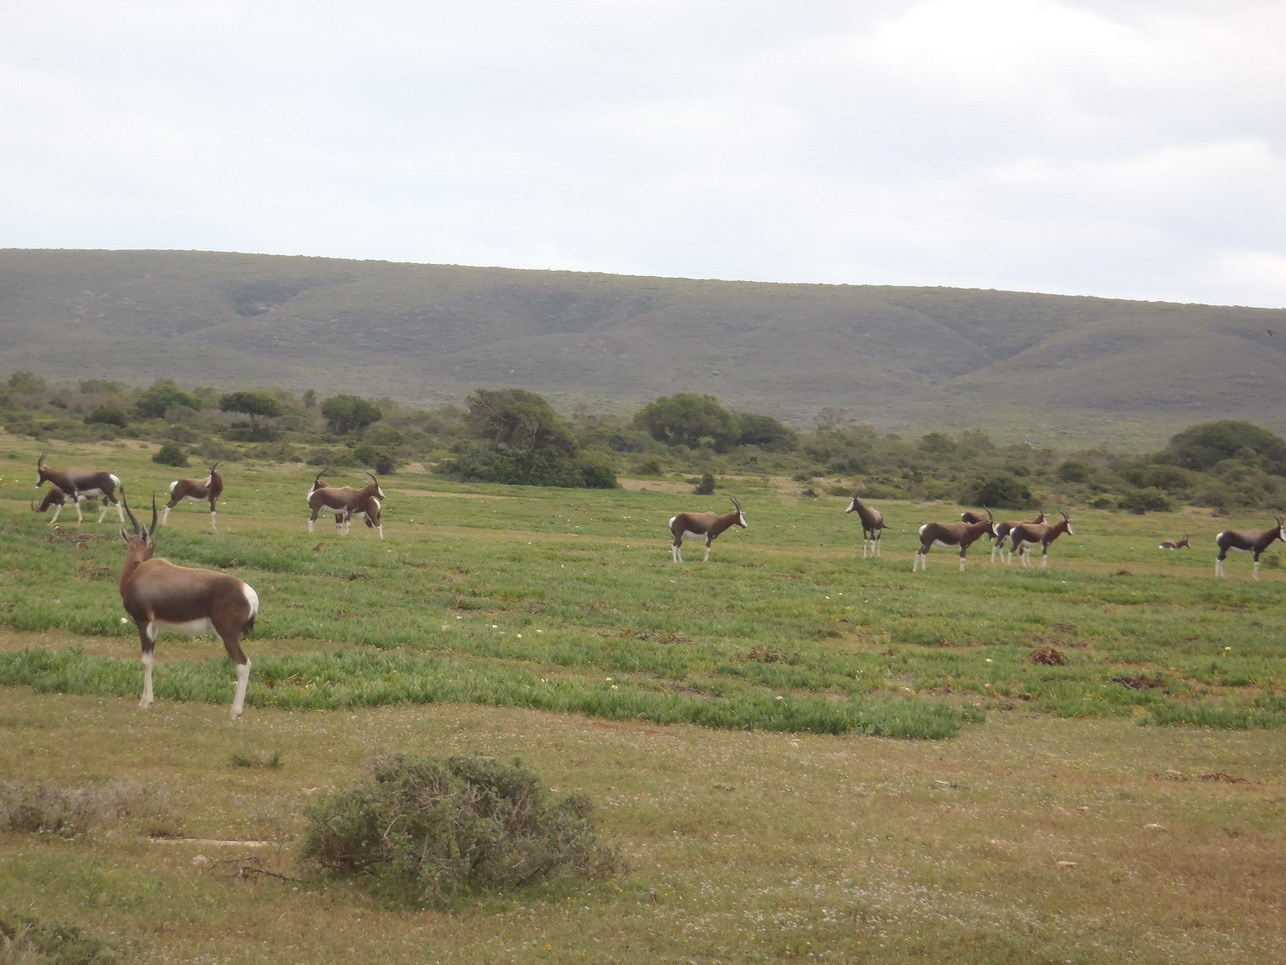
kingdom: Animalia
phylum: Chordata
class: Mammalia
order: Artiodactyla
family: Bovidae
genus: Damaliscus
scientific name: Damaliscus pygargus
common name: Bontebok
